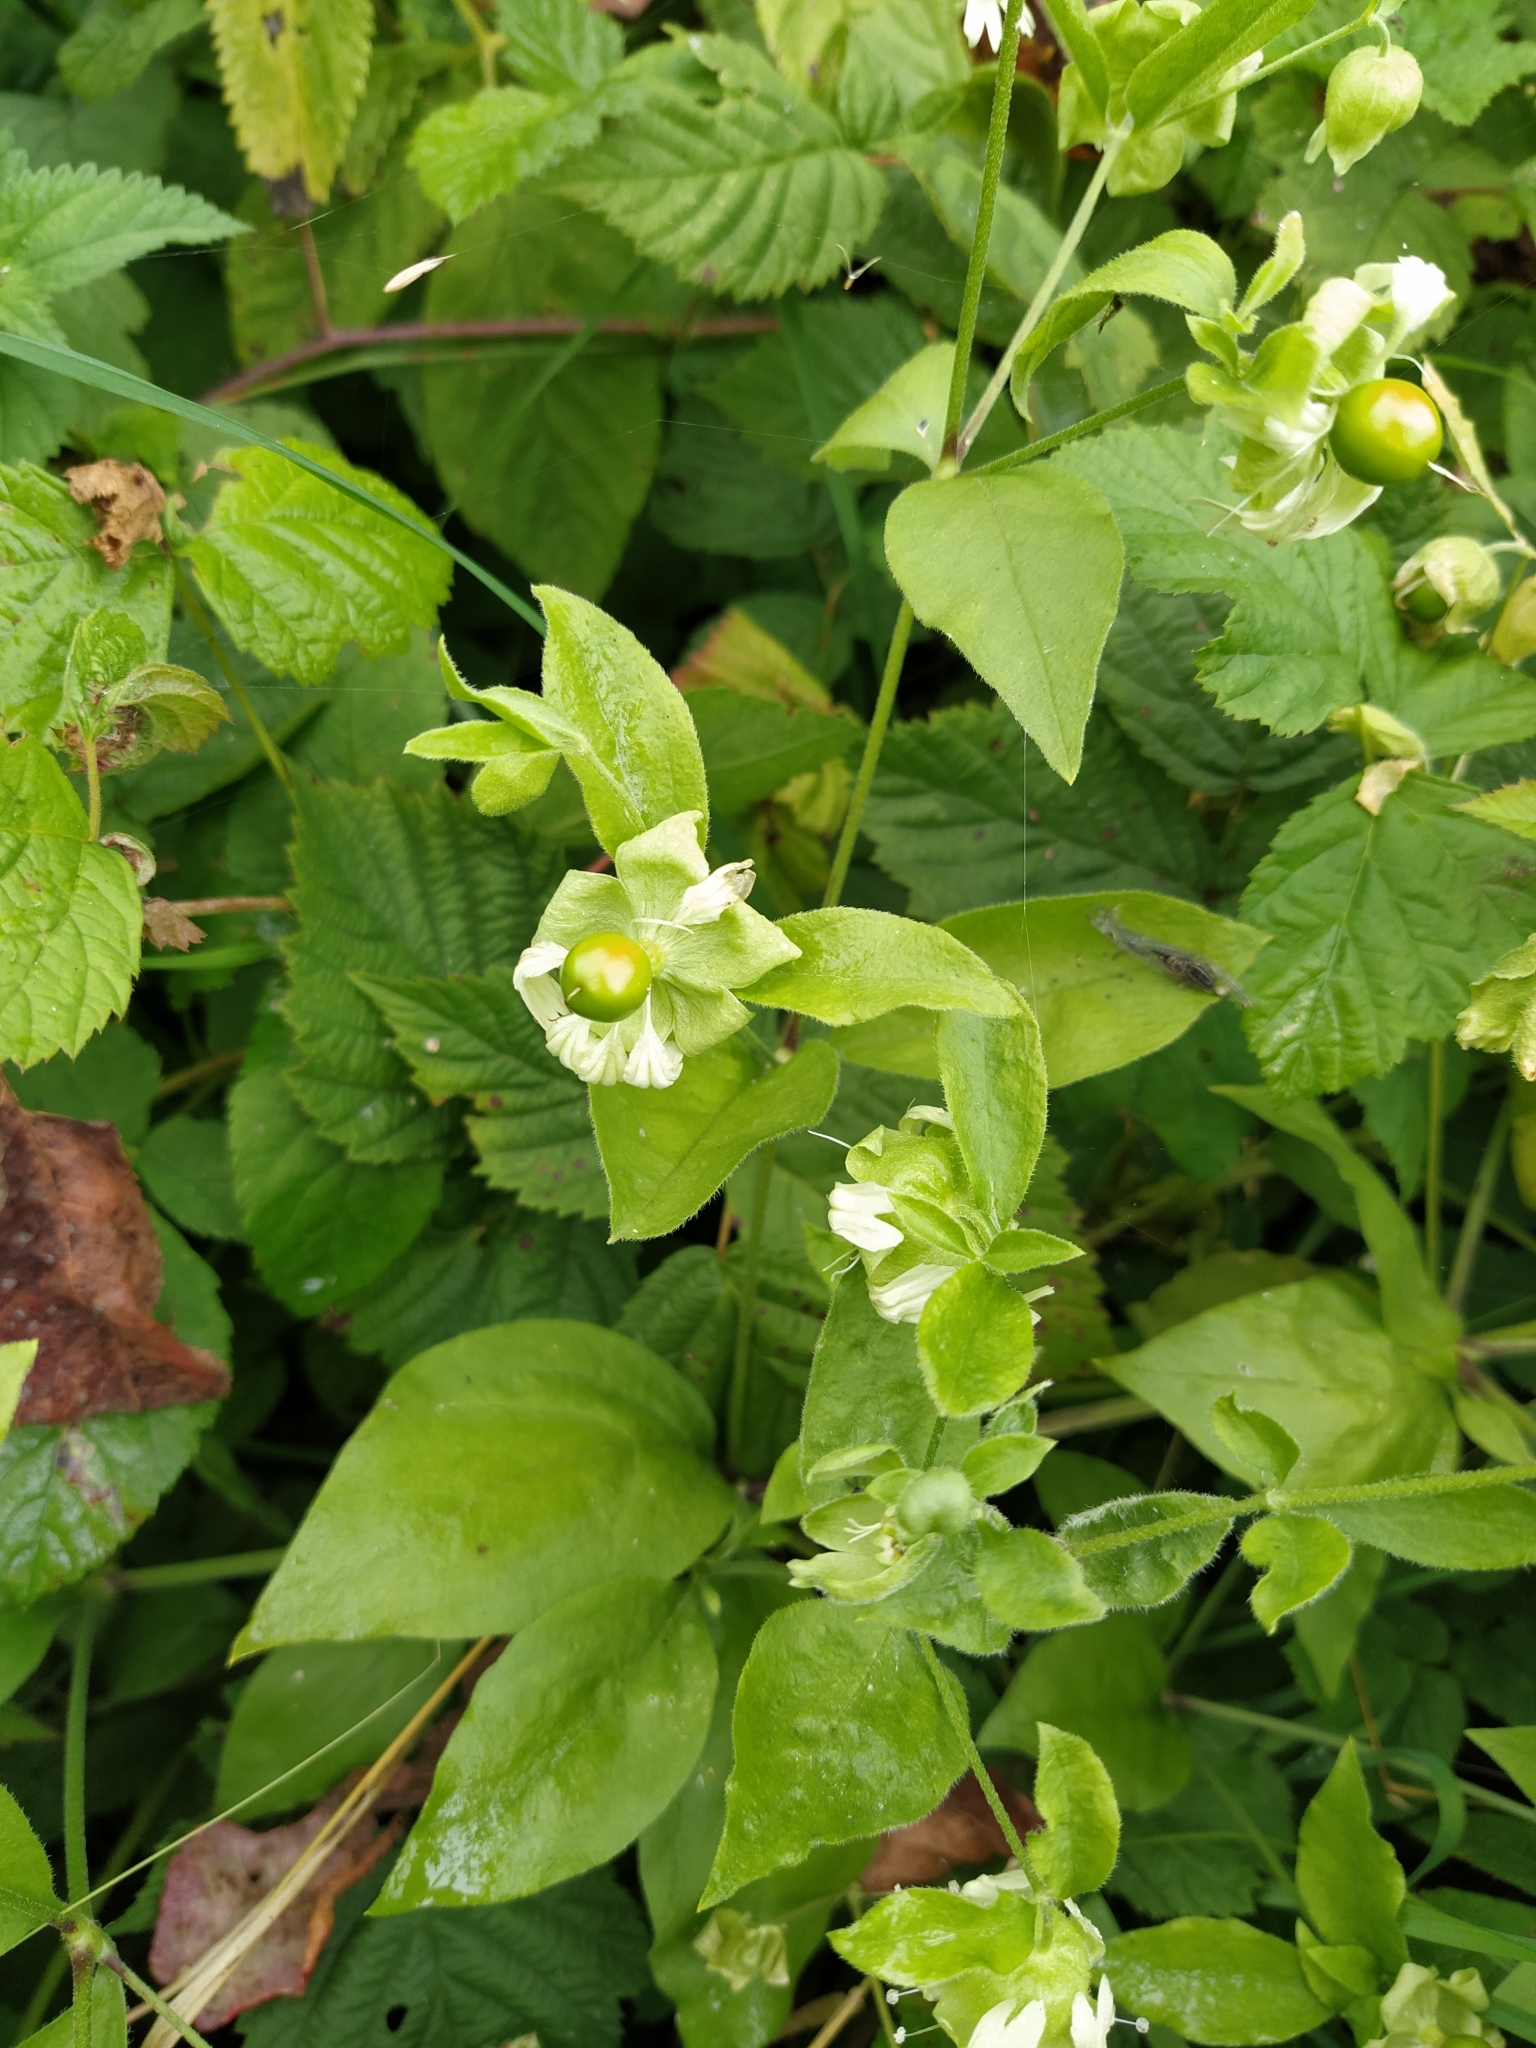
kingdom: Plantae
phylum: Tracheophyta
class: Magnoliopsida
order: Caryophyllales
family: Caryophyllaceae
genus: Silene
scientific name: Silene baccifera
